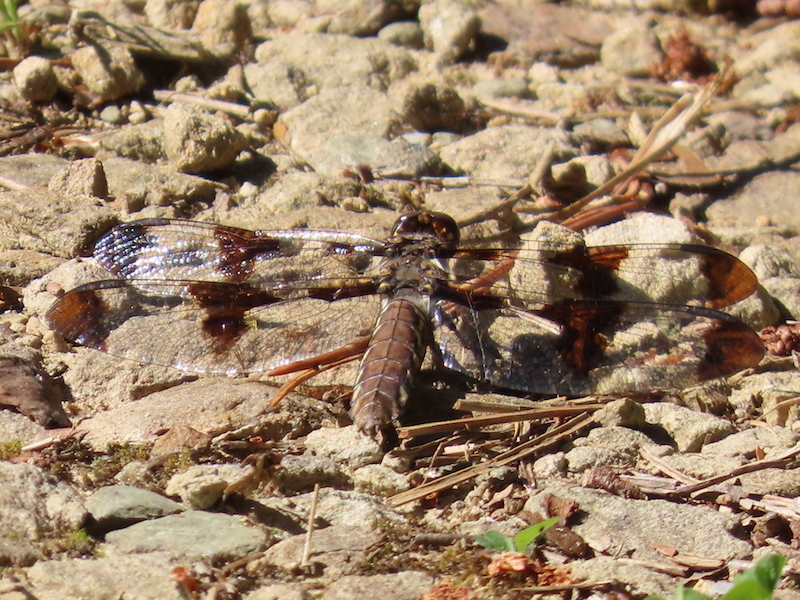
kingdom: Animalia
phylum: Arthropoda
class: Insecta
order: Odonata
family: Libellulidae
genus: Plathemis
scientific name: Plathemis lydia
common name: Common whitetail
